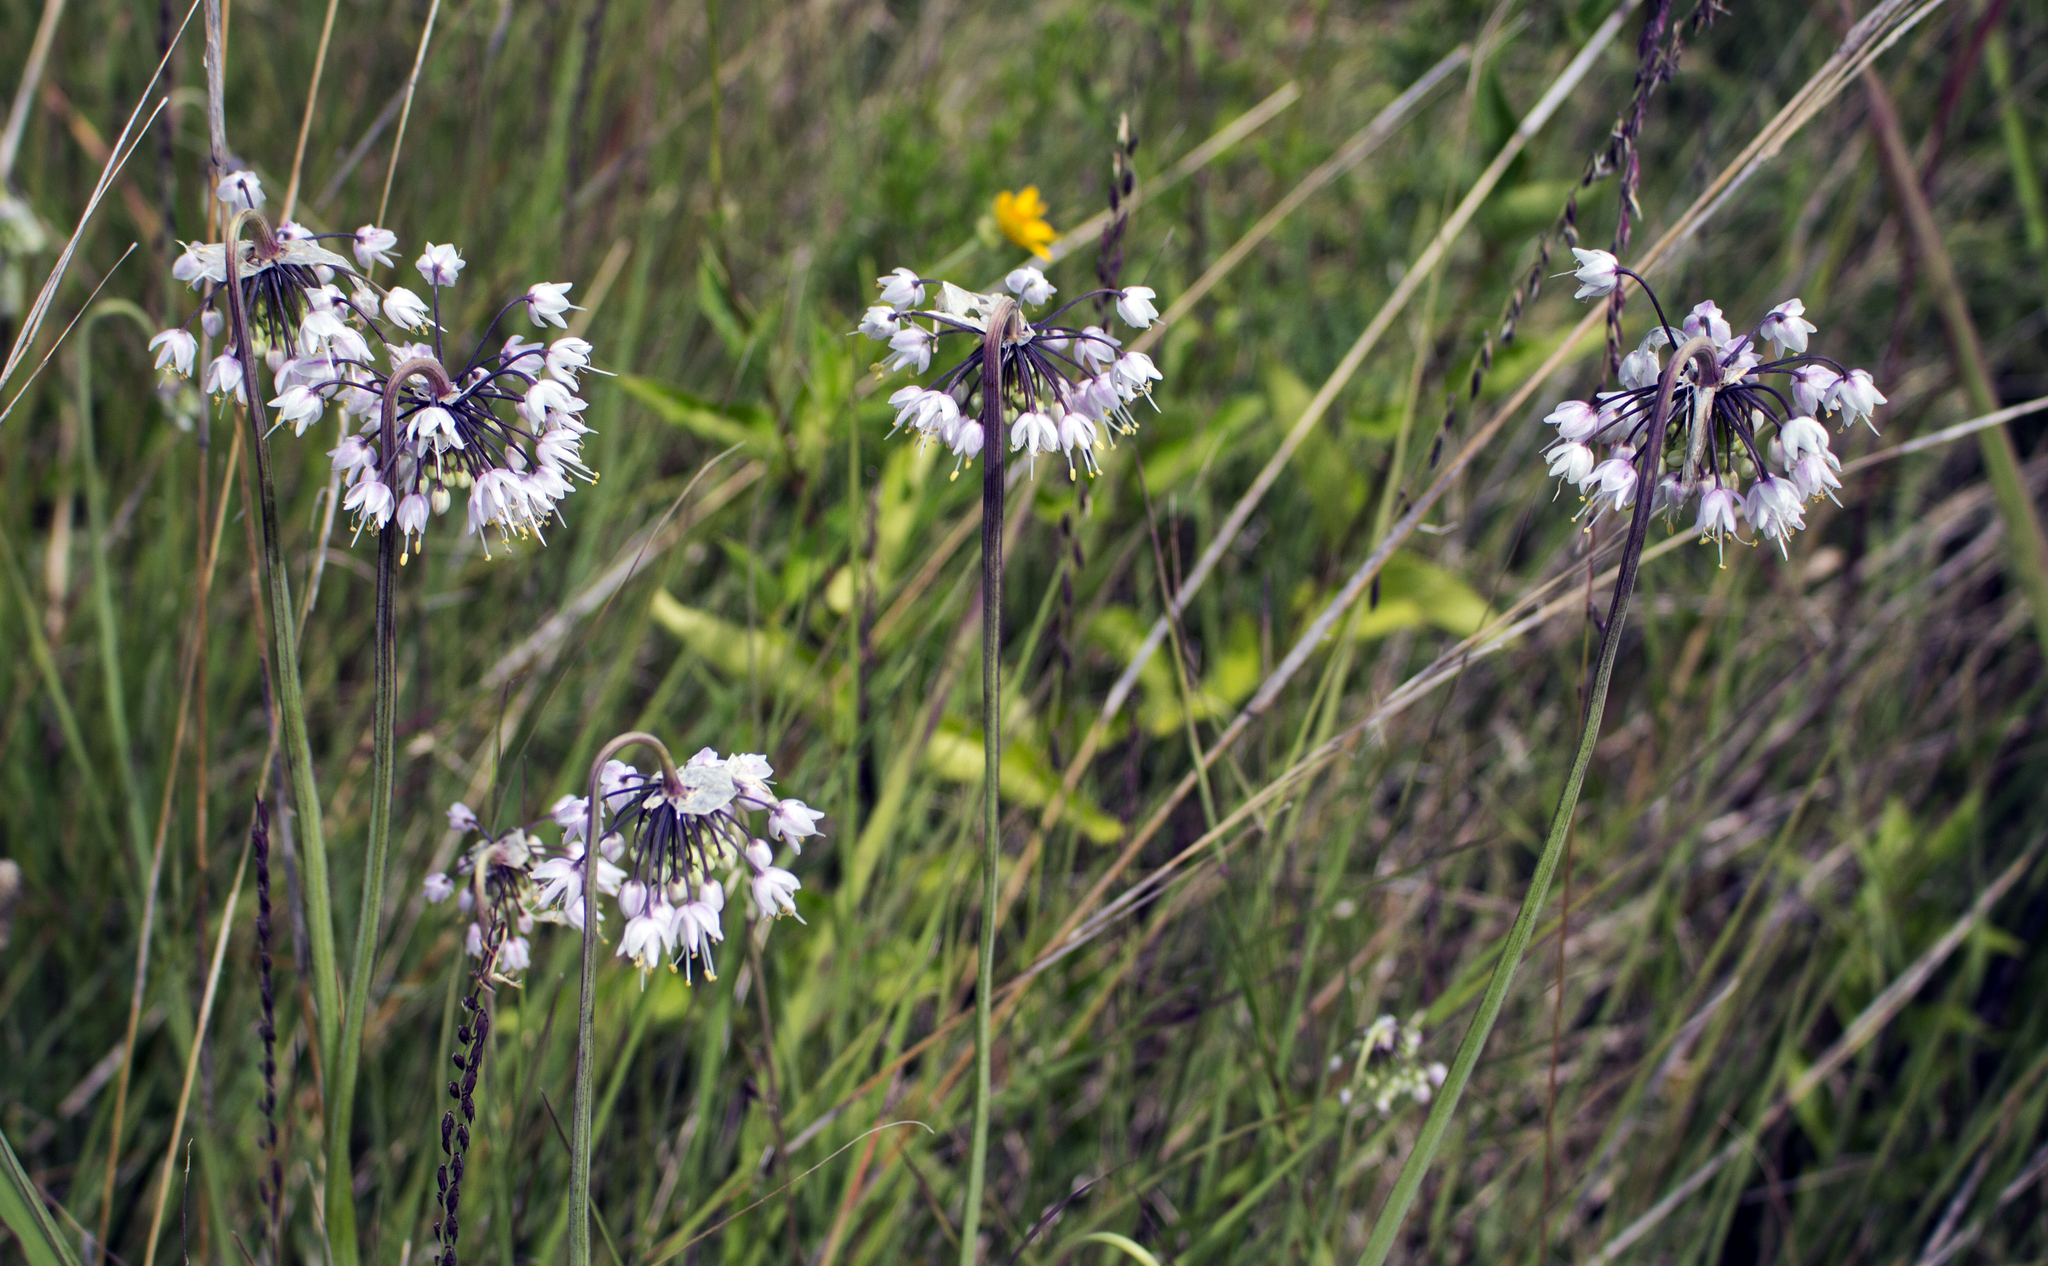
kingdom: Plantae
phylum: Tracheophyta
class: Liliopsida
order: Asparagales
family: Amaryllidaceae
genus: Allium
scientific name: Allium cernuum
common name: Nodding onion
